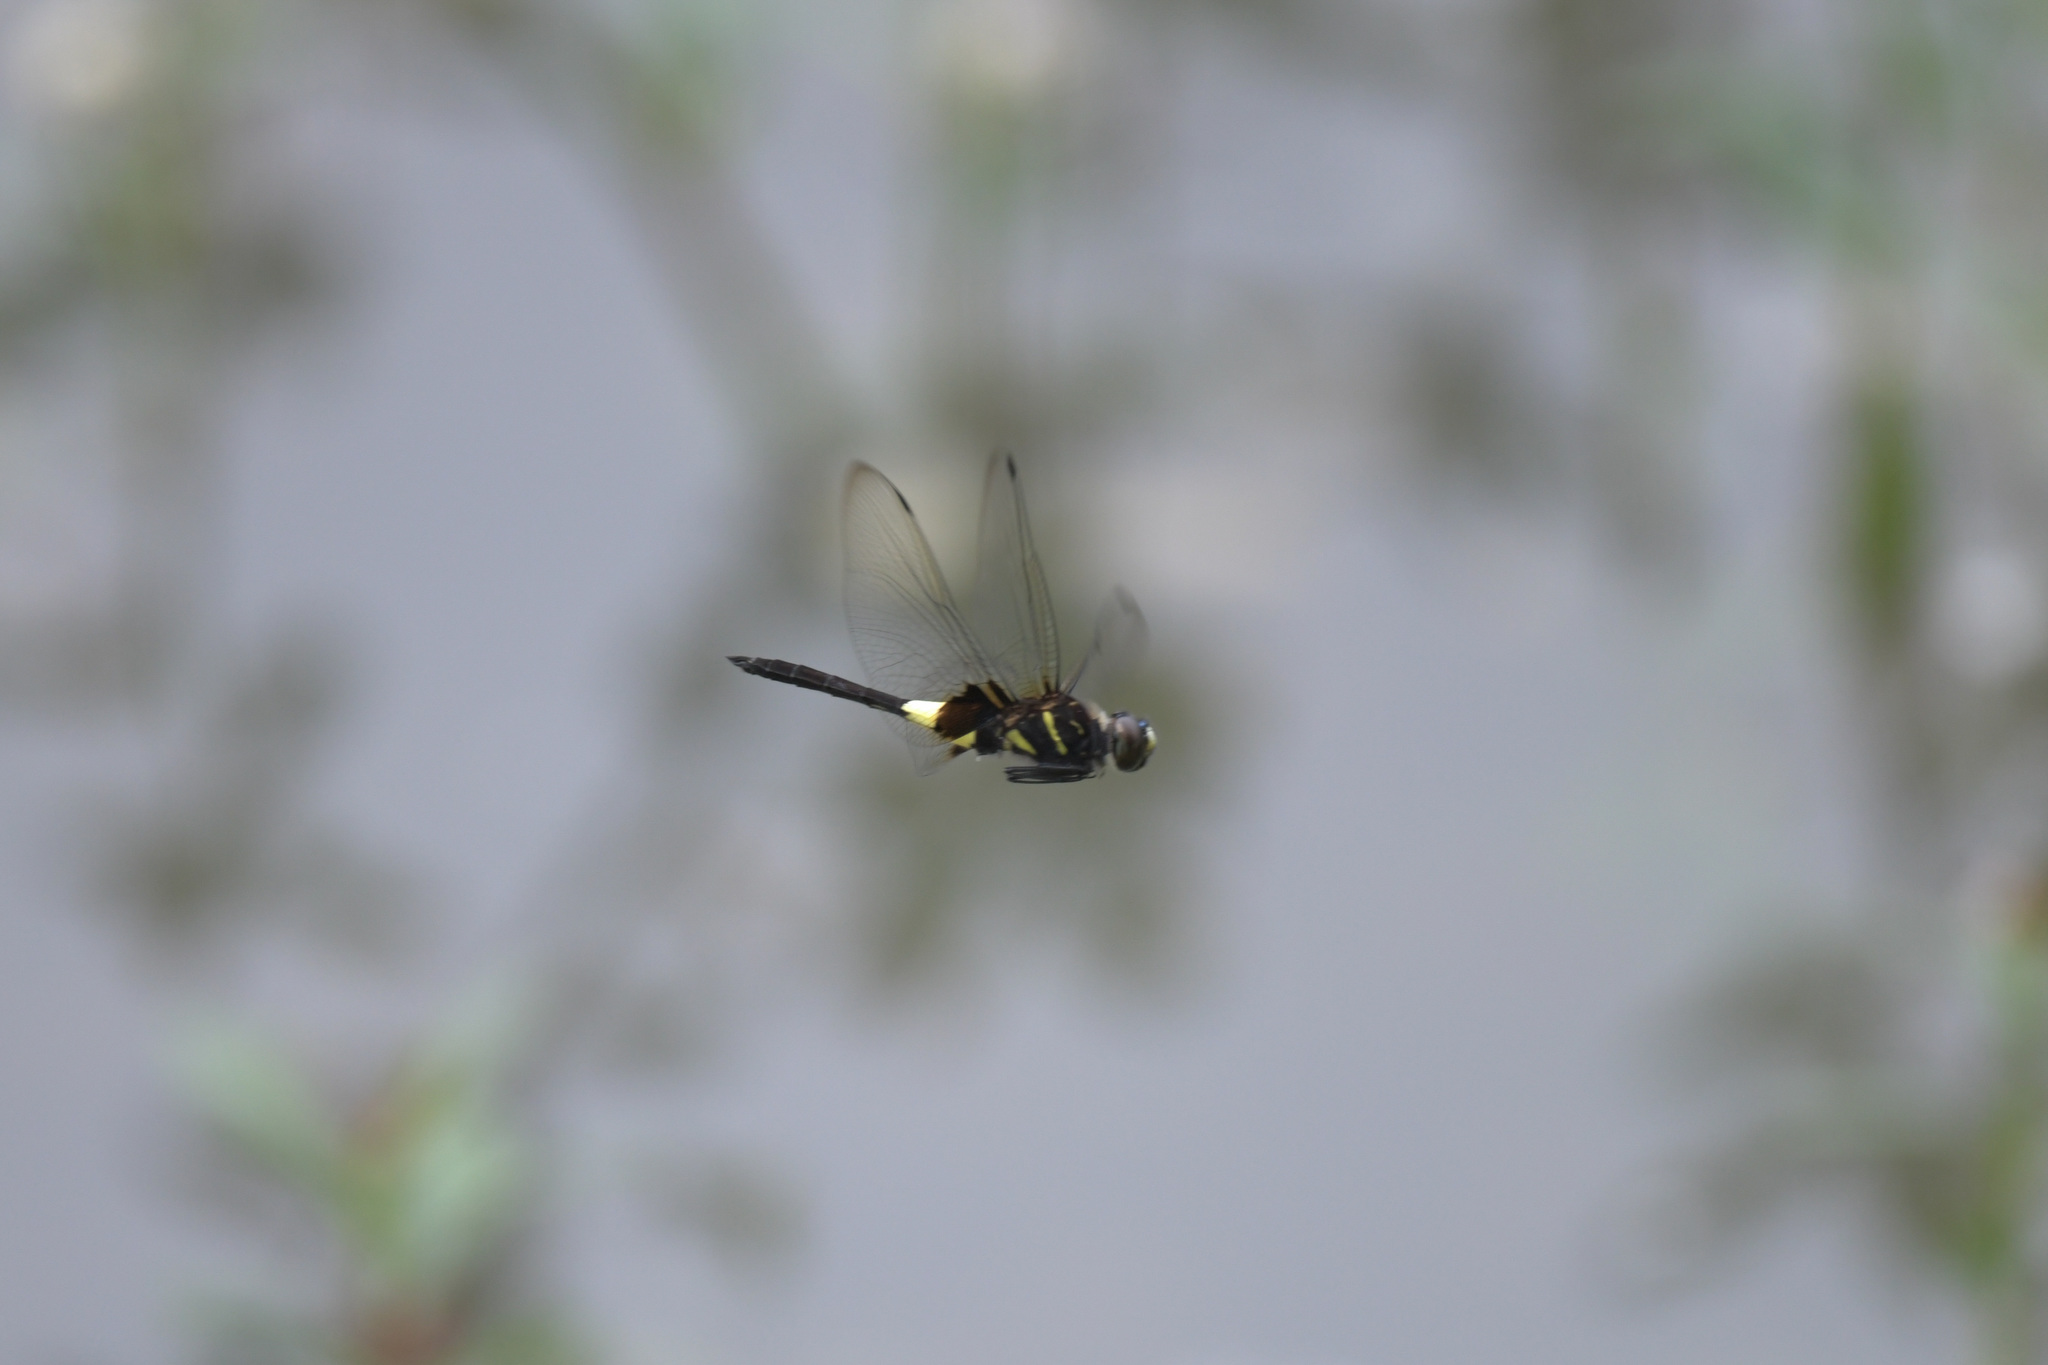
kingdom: Animalia
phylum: Arthropoda
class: Insecta
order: Odonata
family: Libellulidae
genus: Pseudothemis
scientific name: Pseudothemis zonata
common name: Pied skimmer
